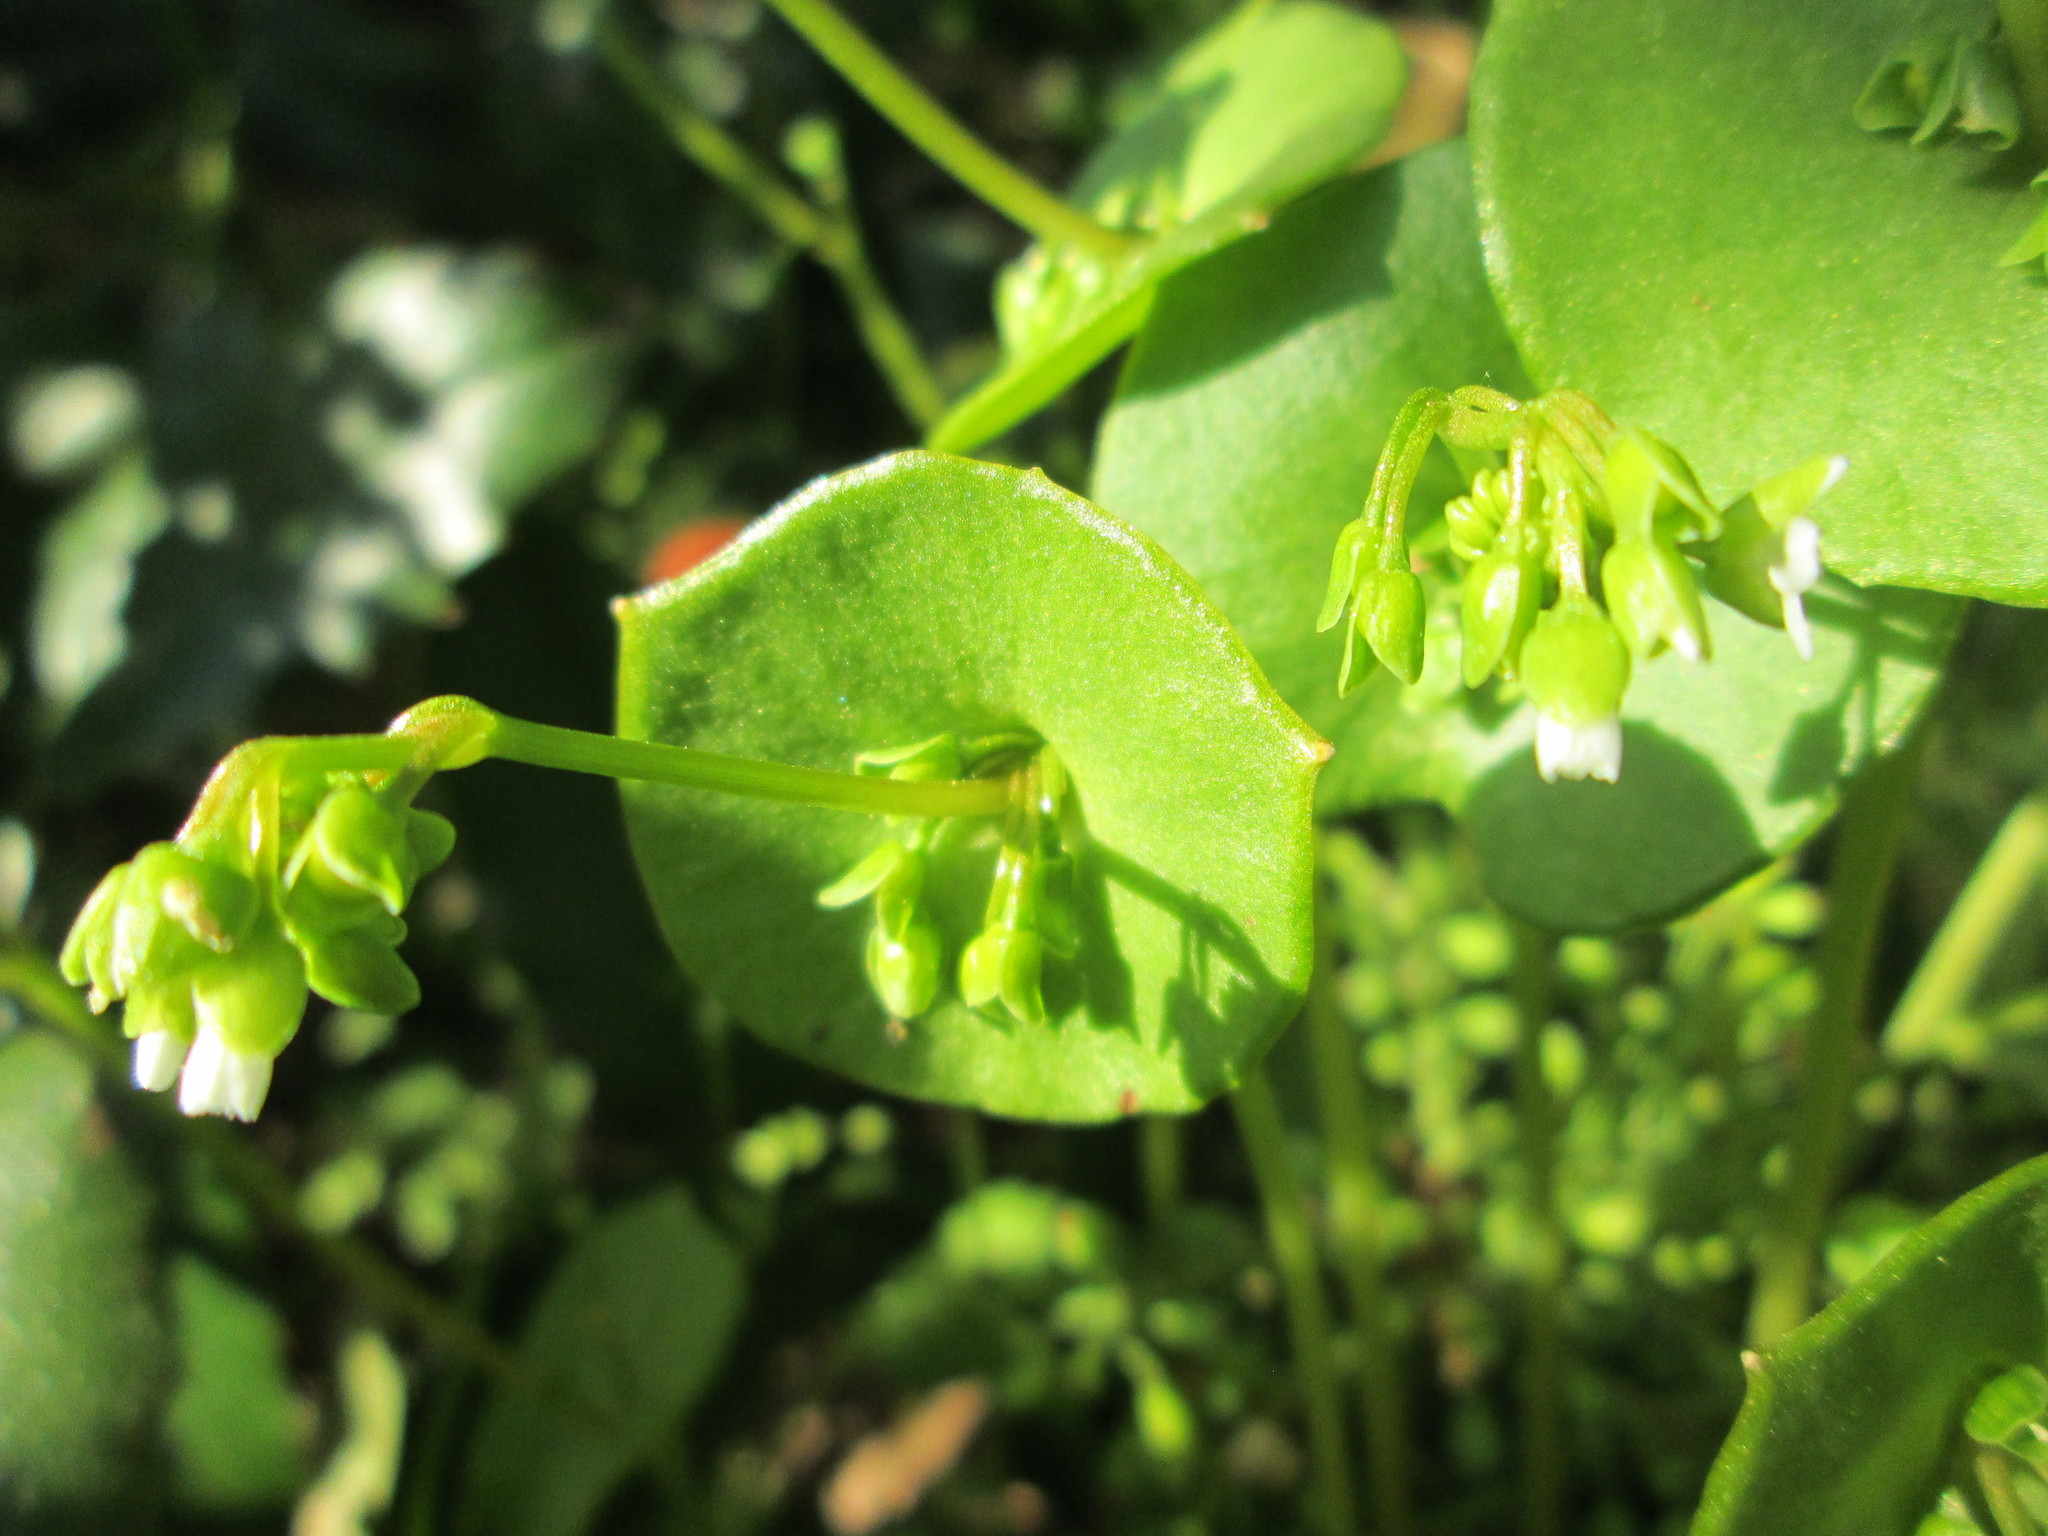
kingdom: Plantae
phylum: Tracheophyta
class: Magnoliopsida
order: Caryophyllales
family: Montiaceae
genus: Claytonia
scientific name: Claytonia perfoliata
